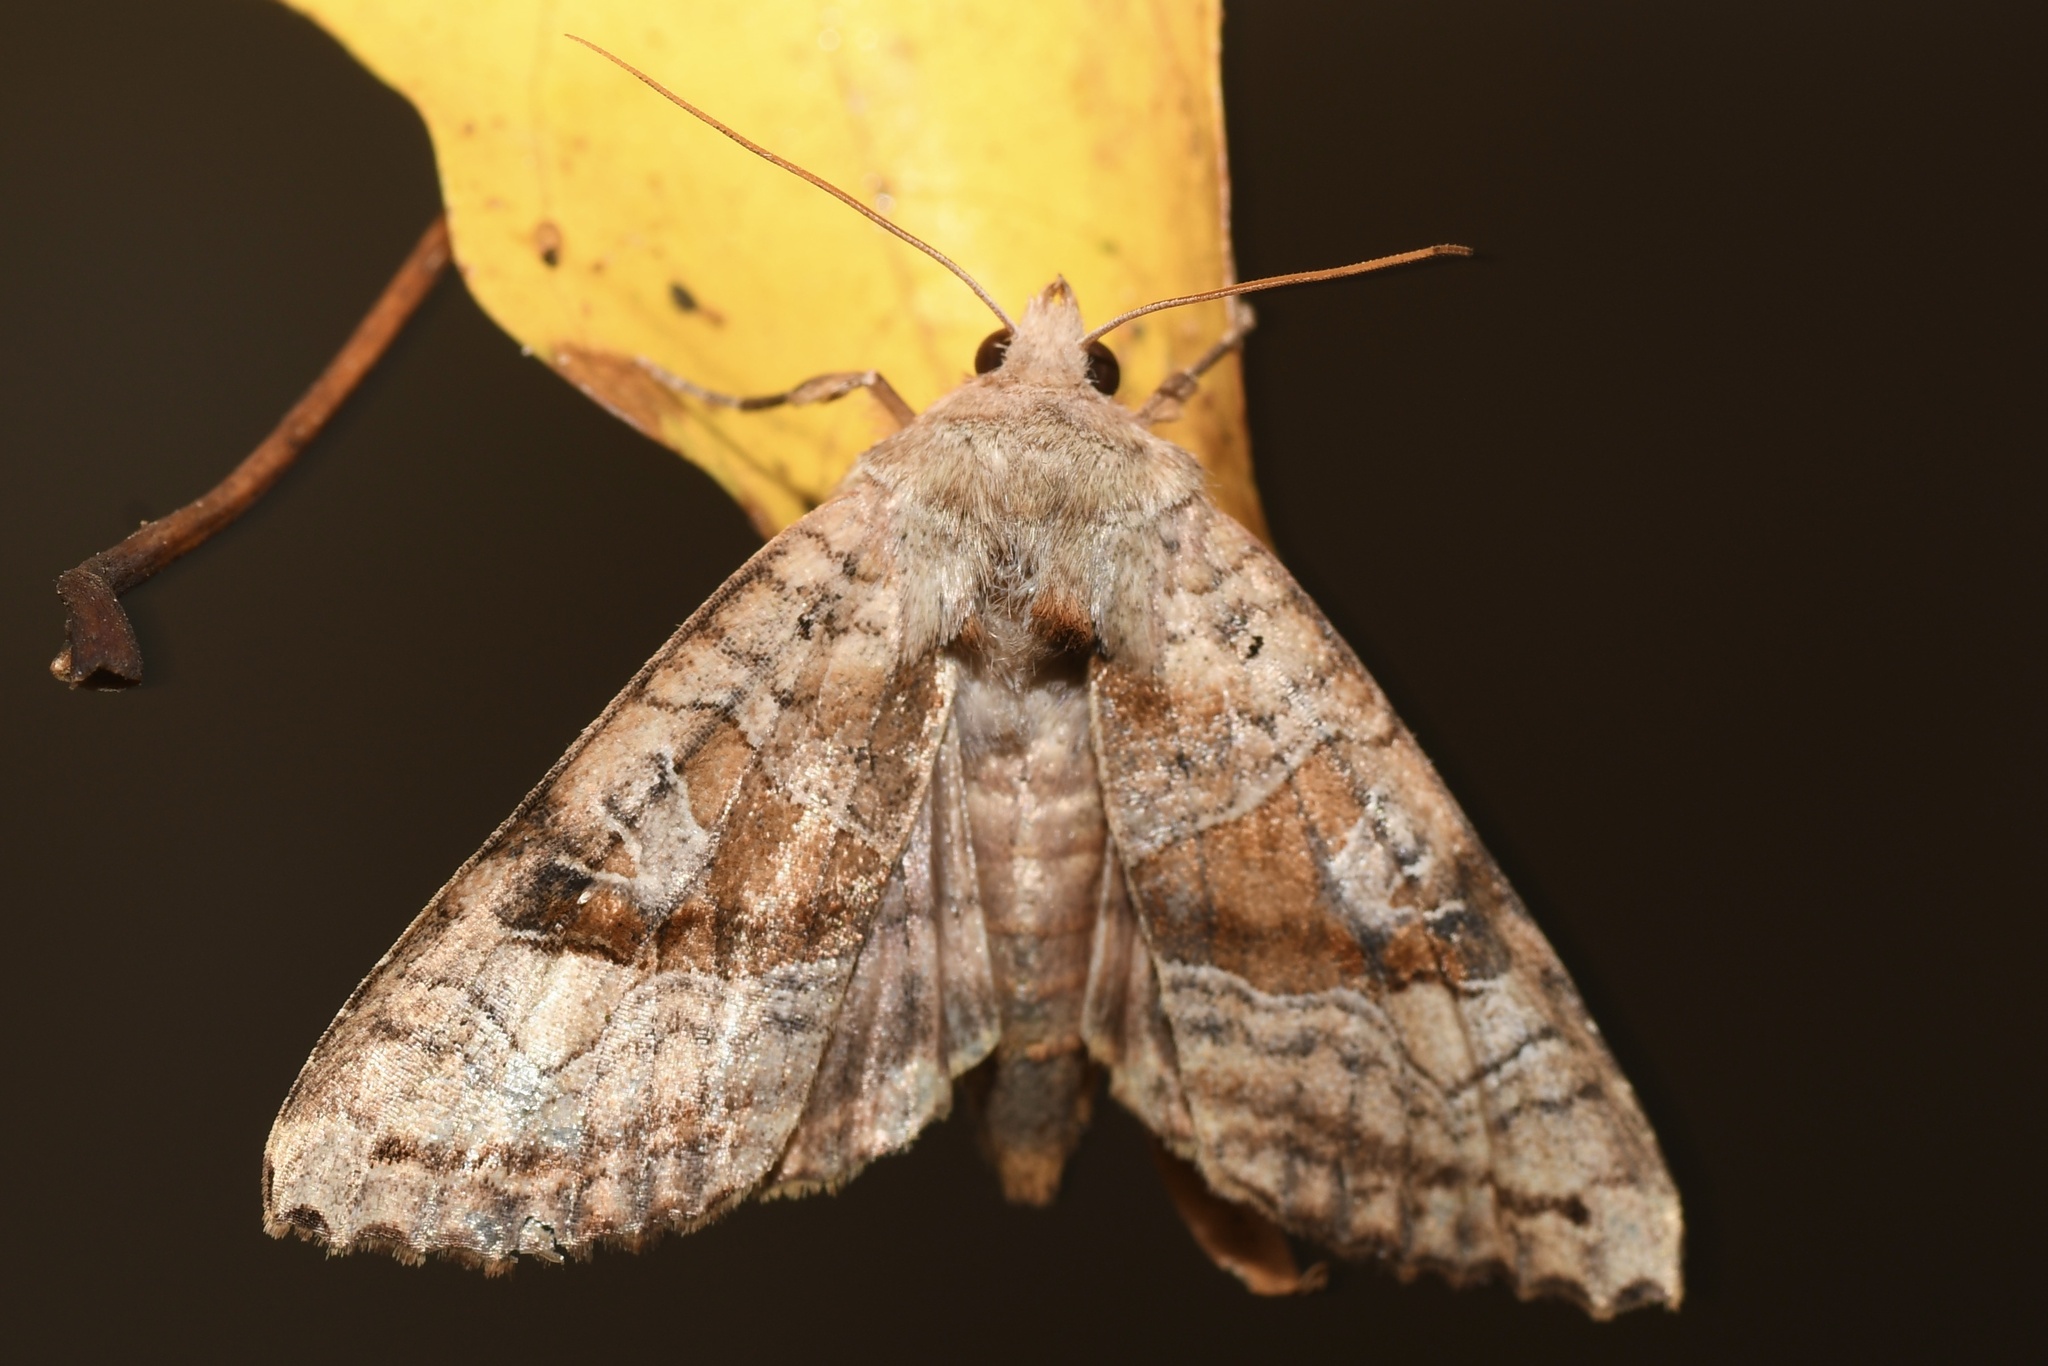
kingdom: Animalia
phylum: Arthropoda
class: Insecta
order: Lepidoptera
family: Noctuidae
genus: Phlogophora
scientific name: Phlogophora periculosa
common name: Brown angle shades
